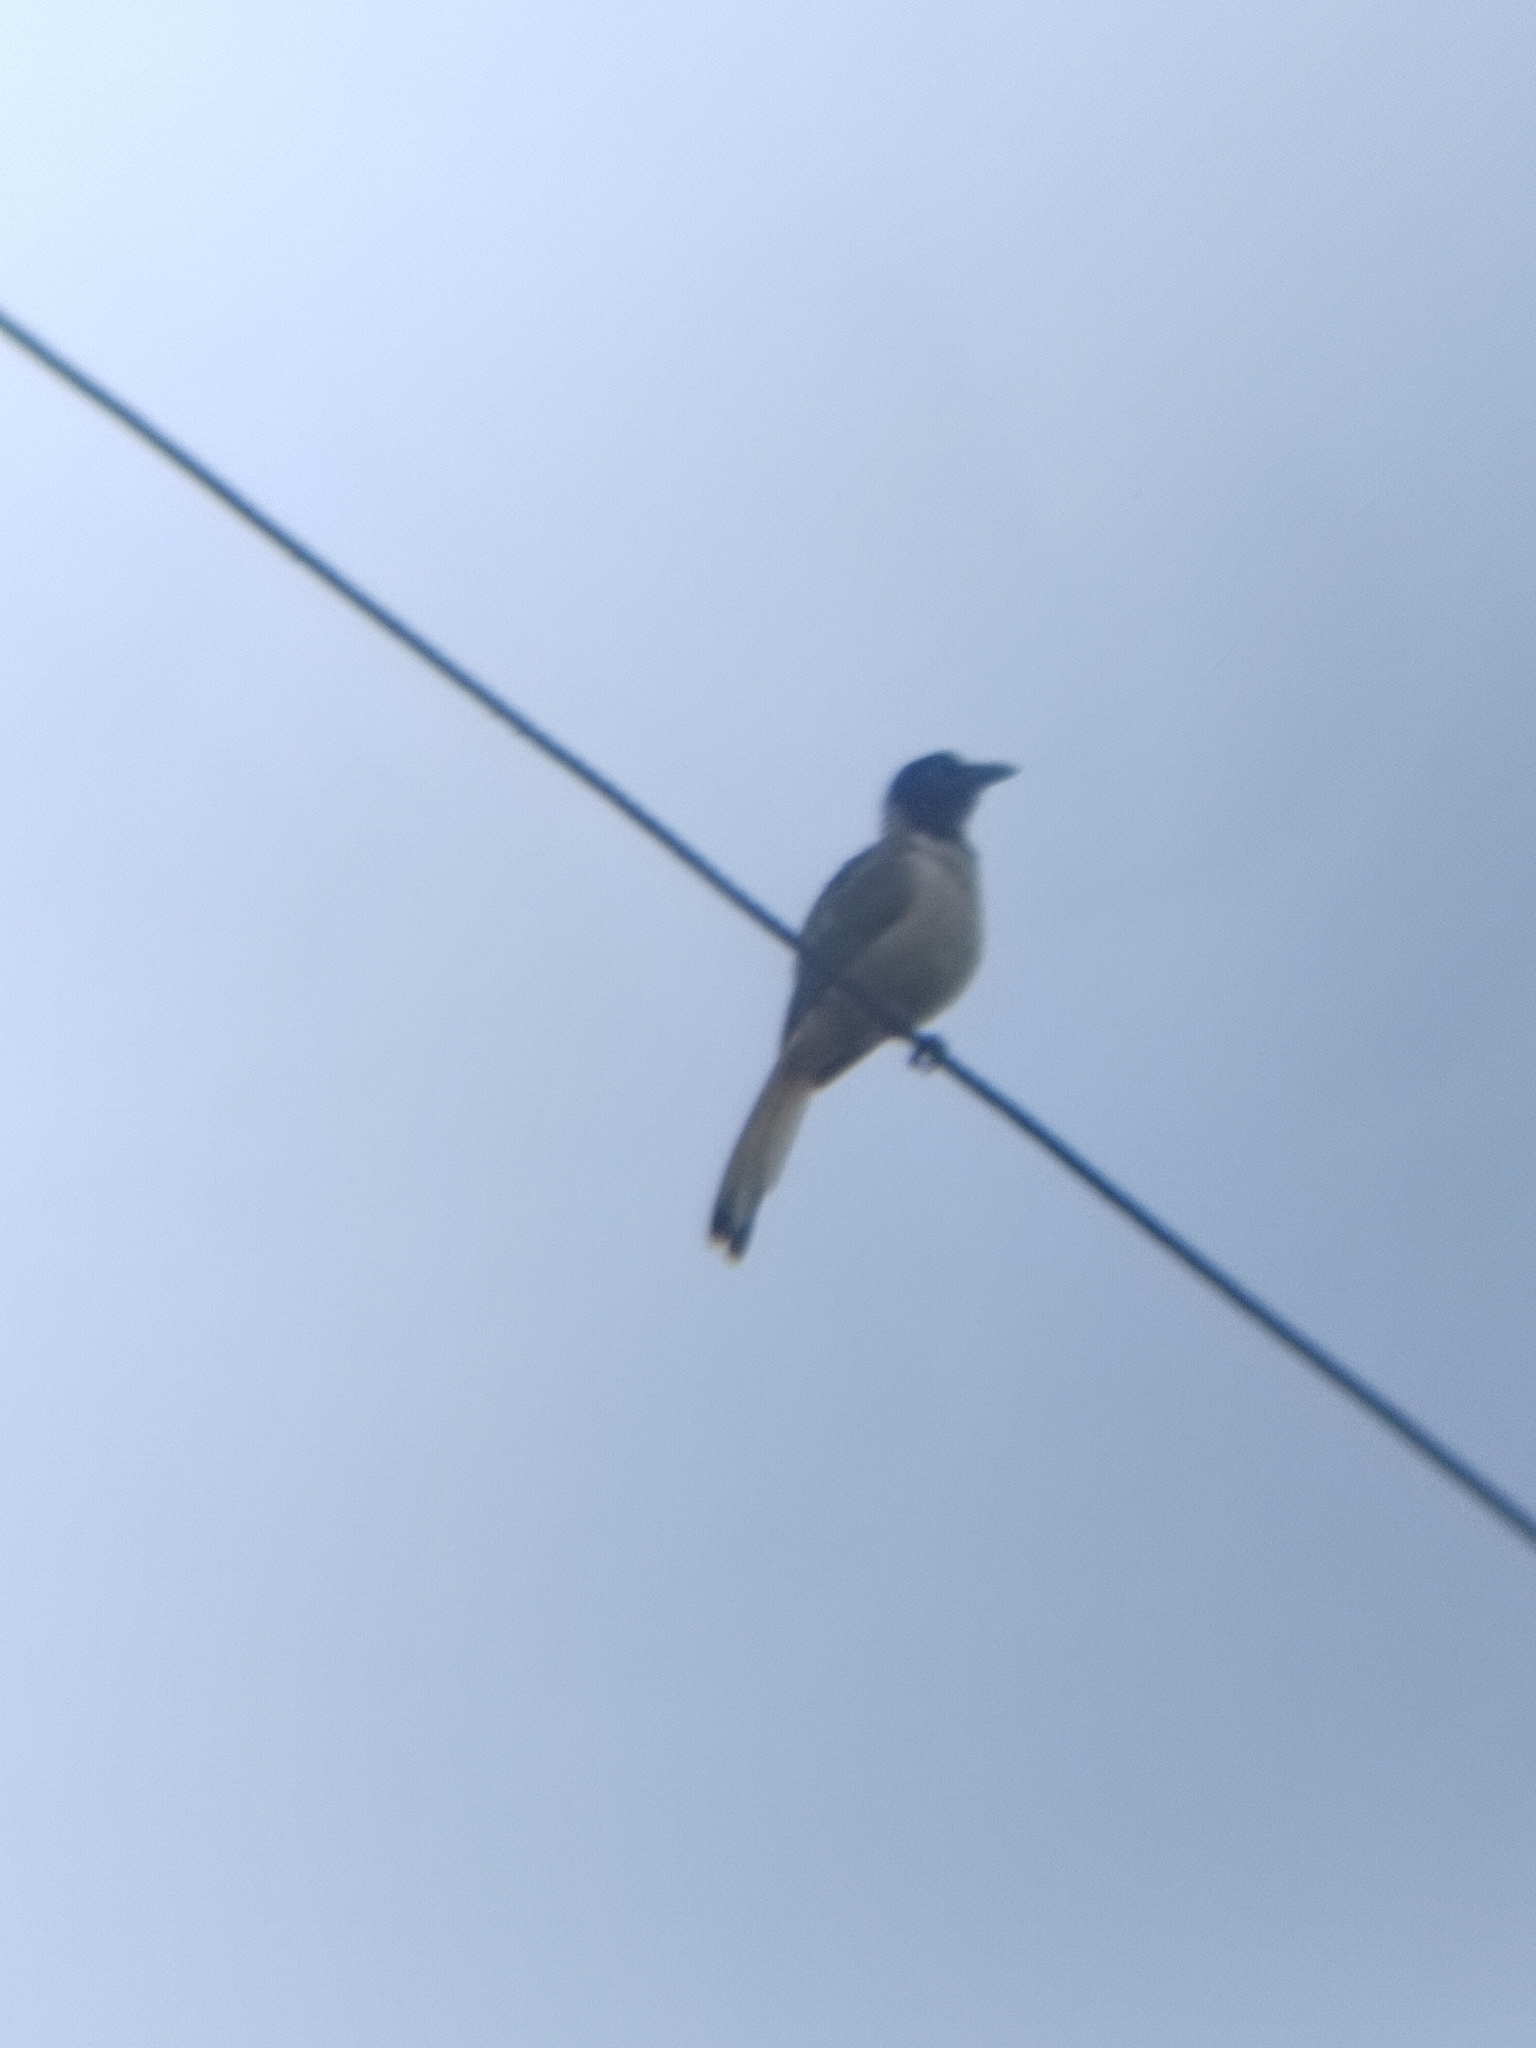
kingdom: Animalia
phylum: Chordata
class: Aves
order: Passeriformes
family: Corvidae
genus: Cyanocorax
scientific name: Cyanocorax yncas
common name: Green jay
